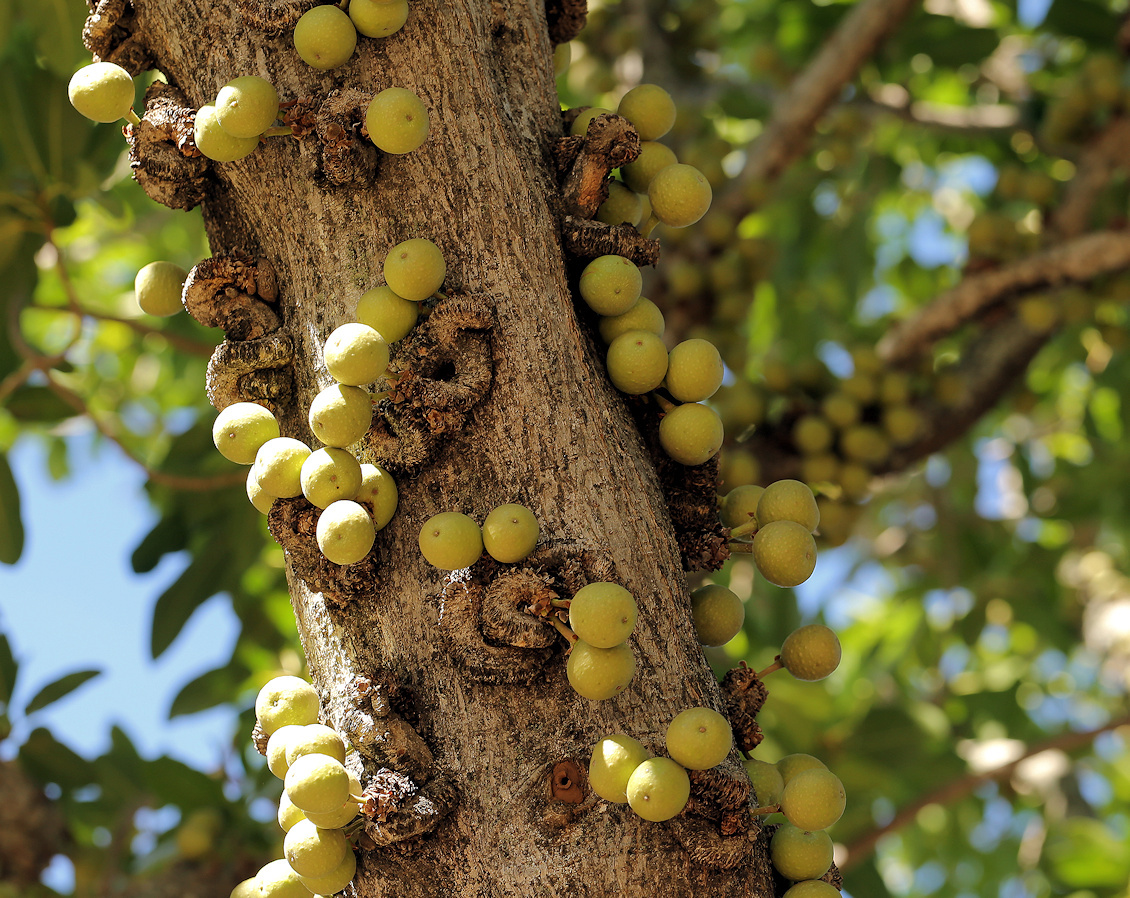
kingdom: Plantae
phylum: Tracheophyta
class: Magnoliopsida
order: Rosales
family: Moraceae
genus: Ficus
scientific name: Ficus sansibarica
